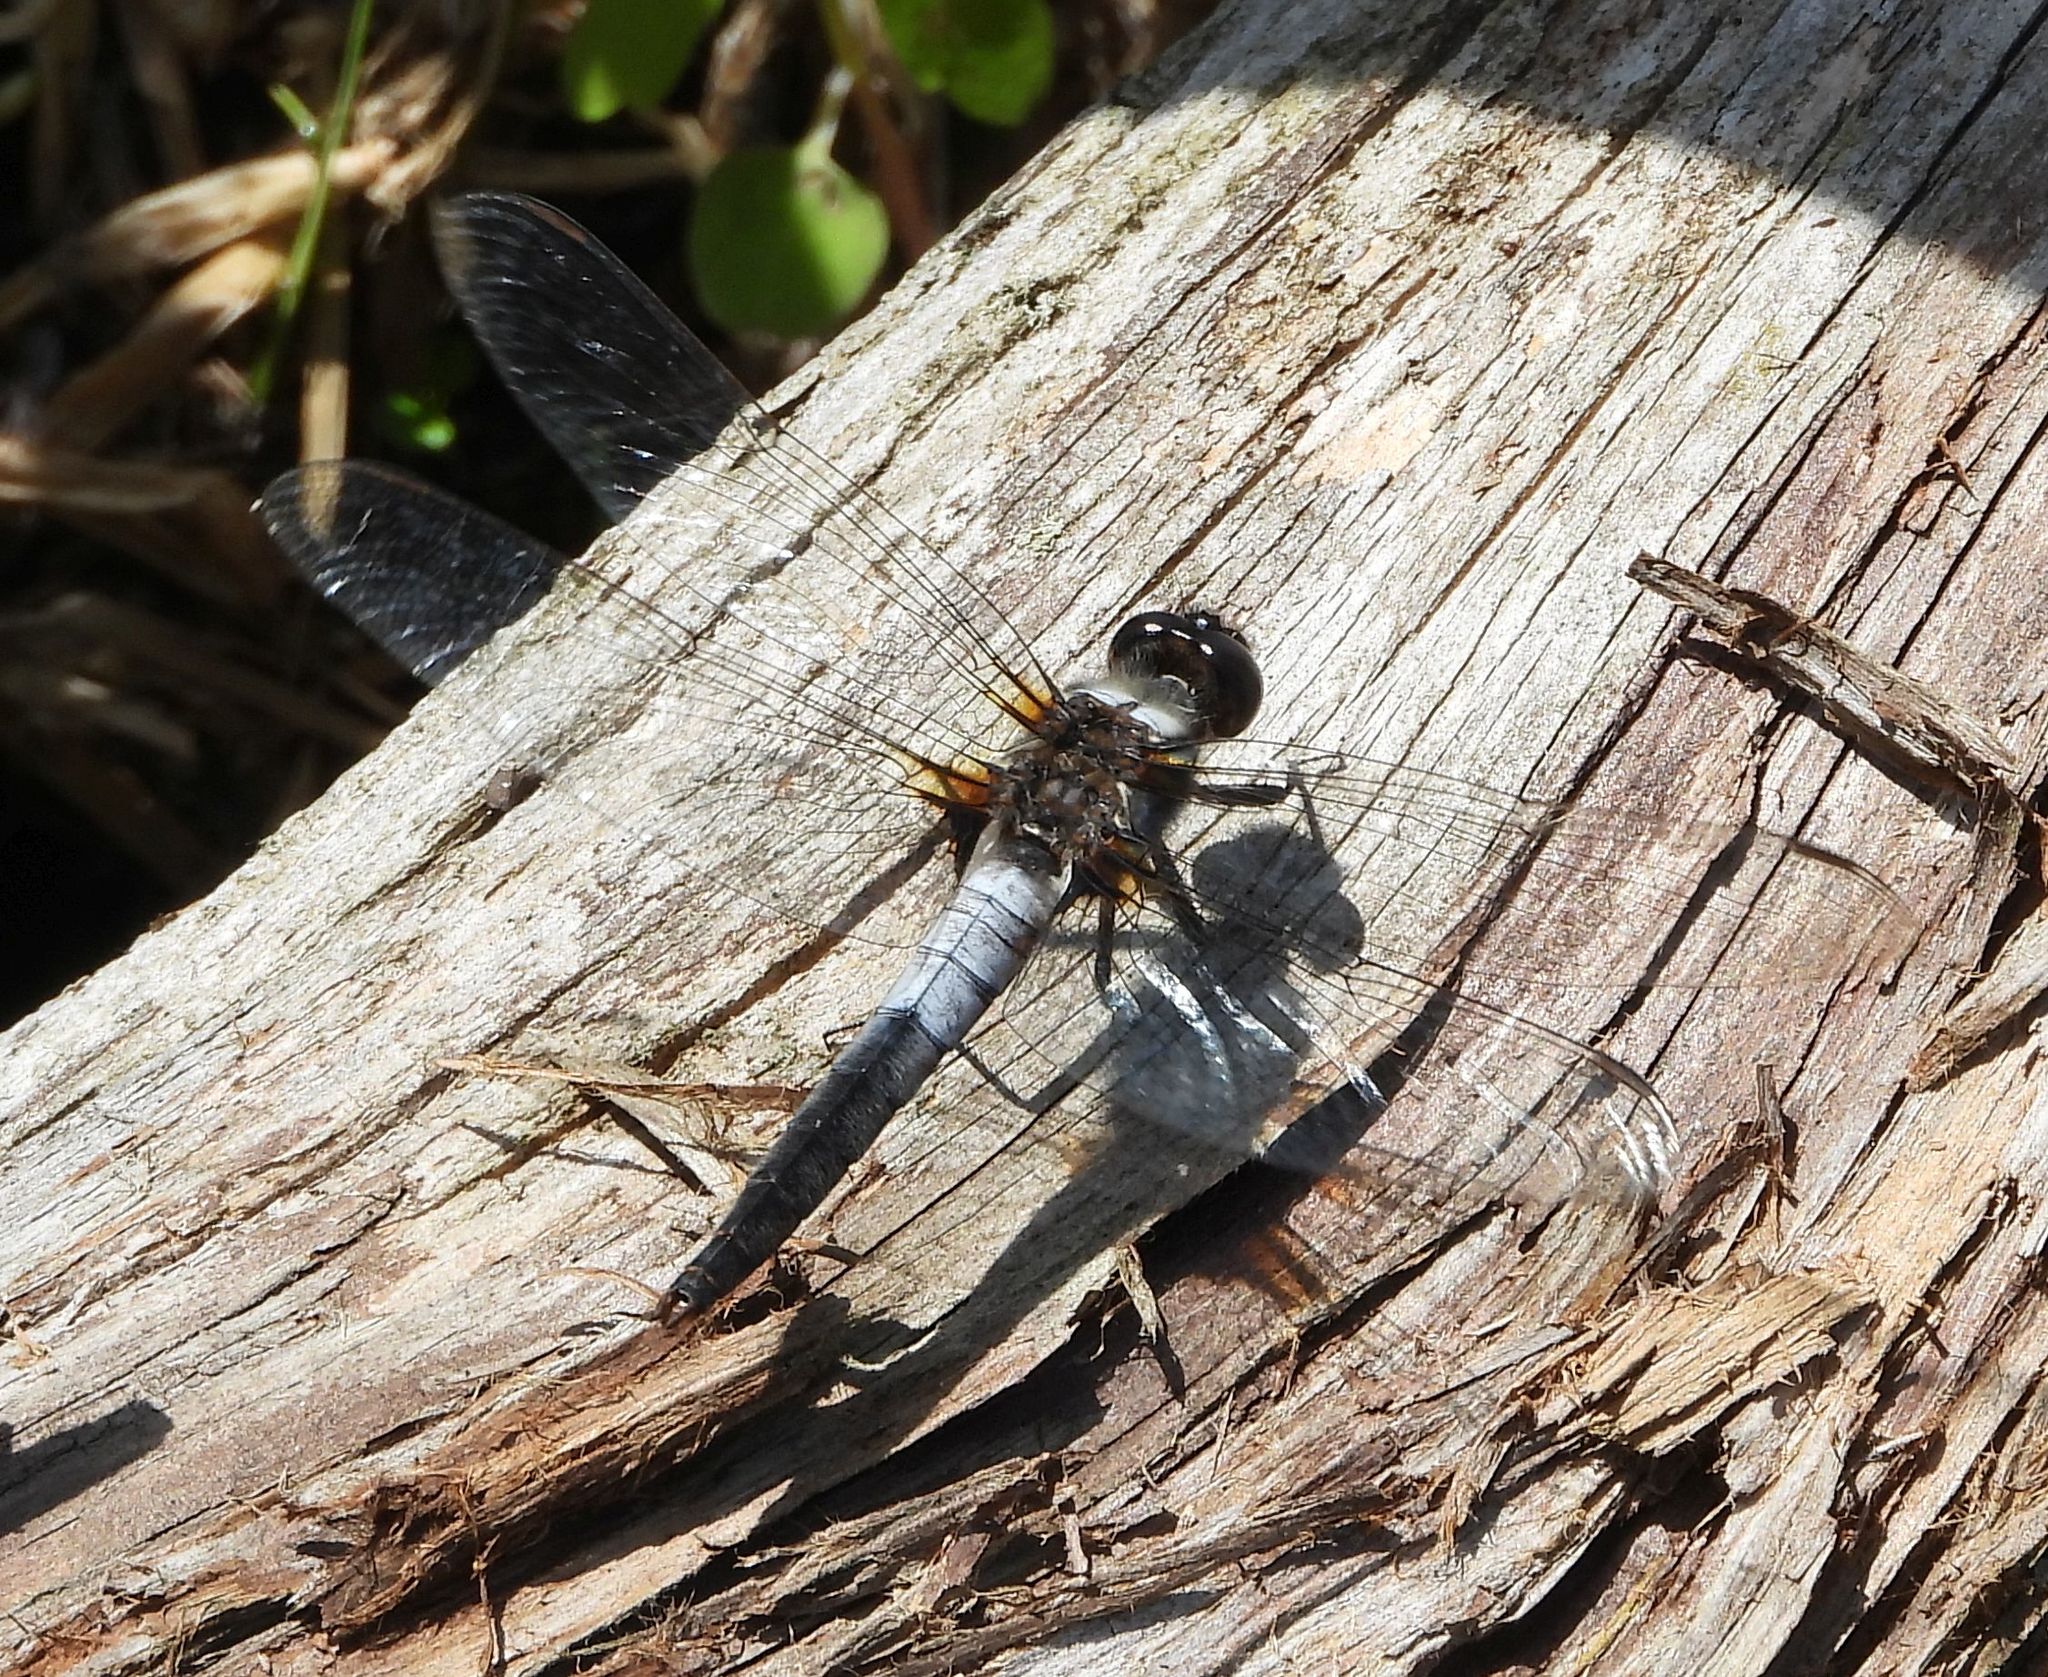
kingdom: Animalia
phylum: Arthropoda
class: Insecta
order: Odonata
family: Libellulidae
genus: Ladona
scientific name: Ladona julia
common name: Chalk-fronted corporal
